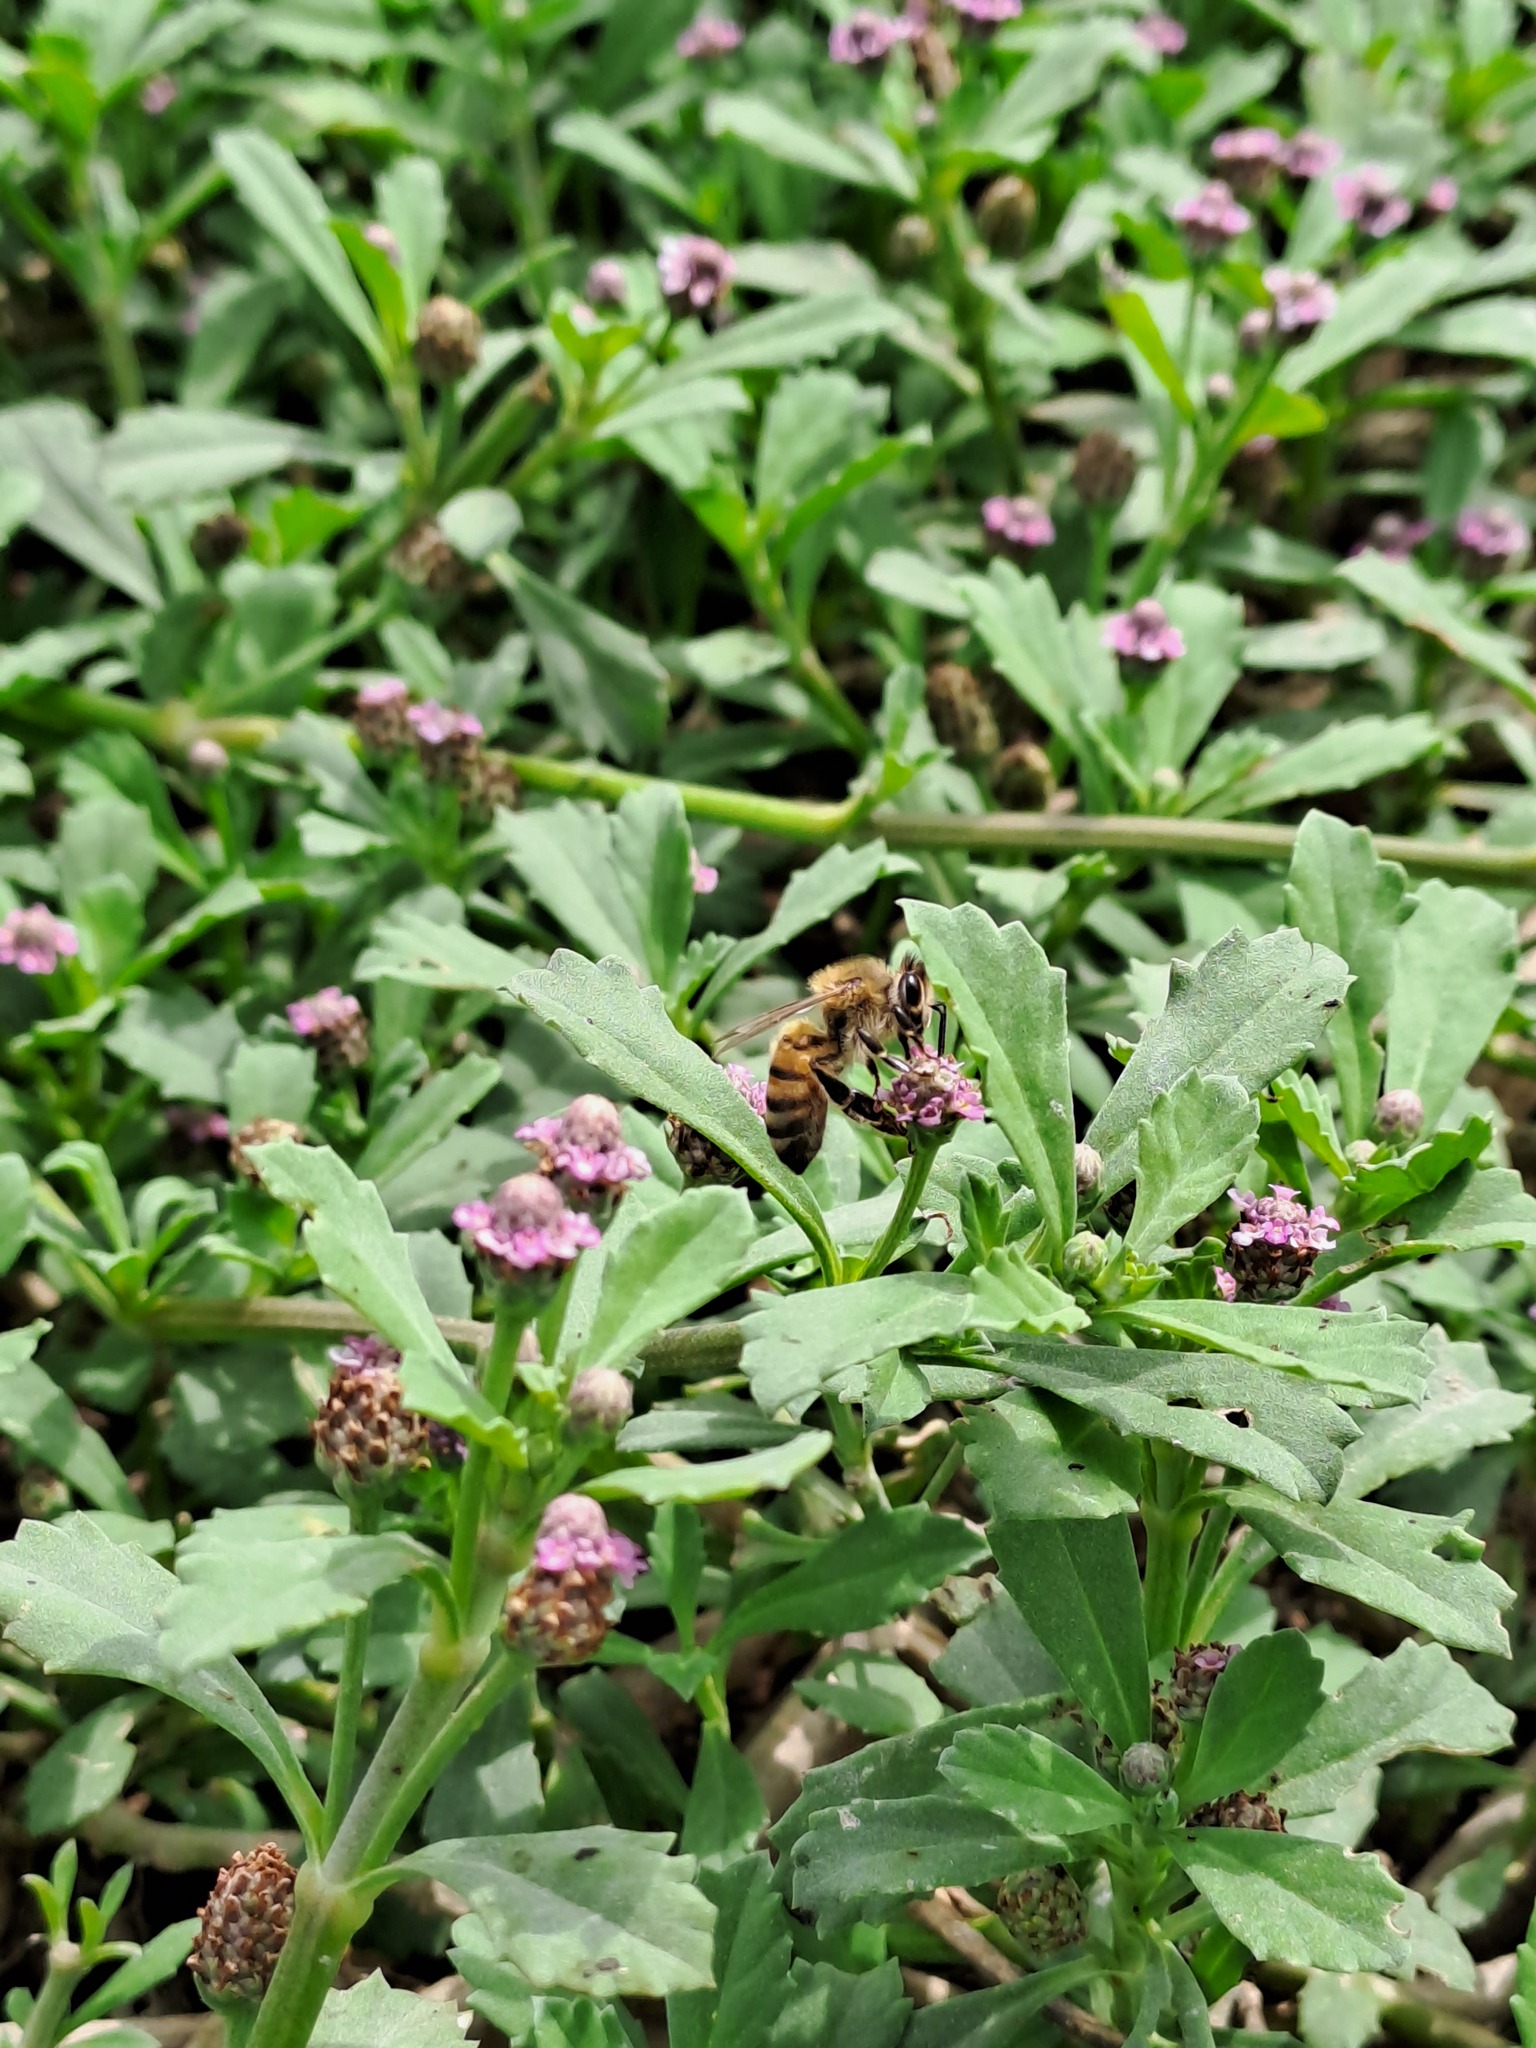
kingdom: Animalia
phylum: Arthropoda
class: Insecta
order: Hymenoptera
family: Apidae
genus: Apis
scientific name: Apis mellifera
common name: Honey bee
